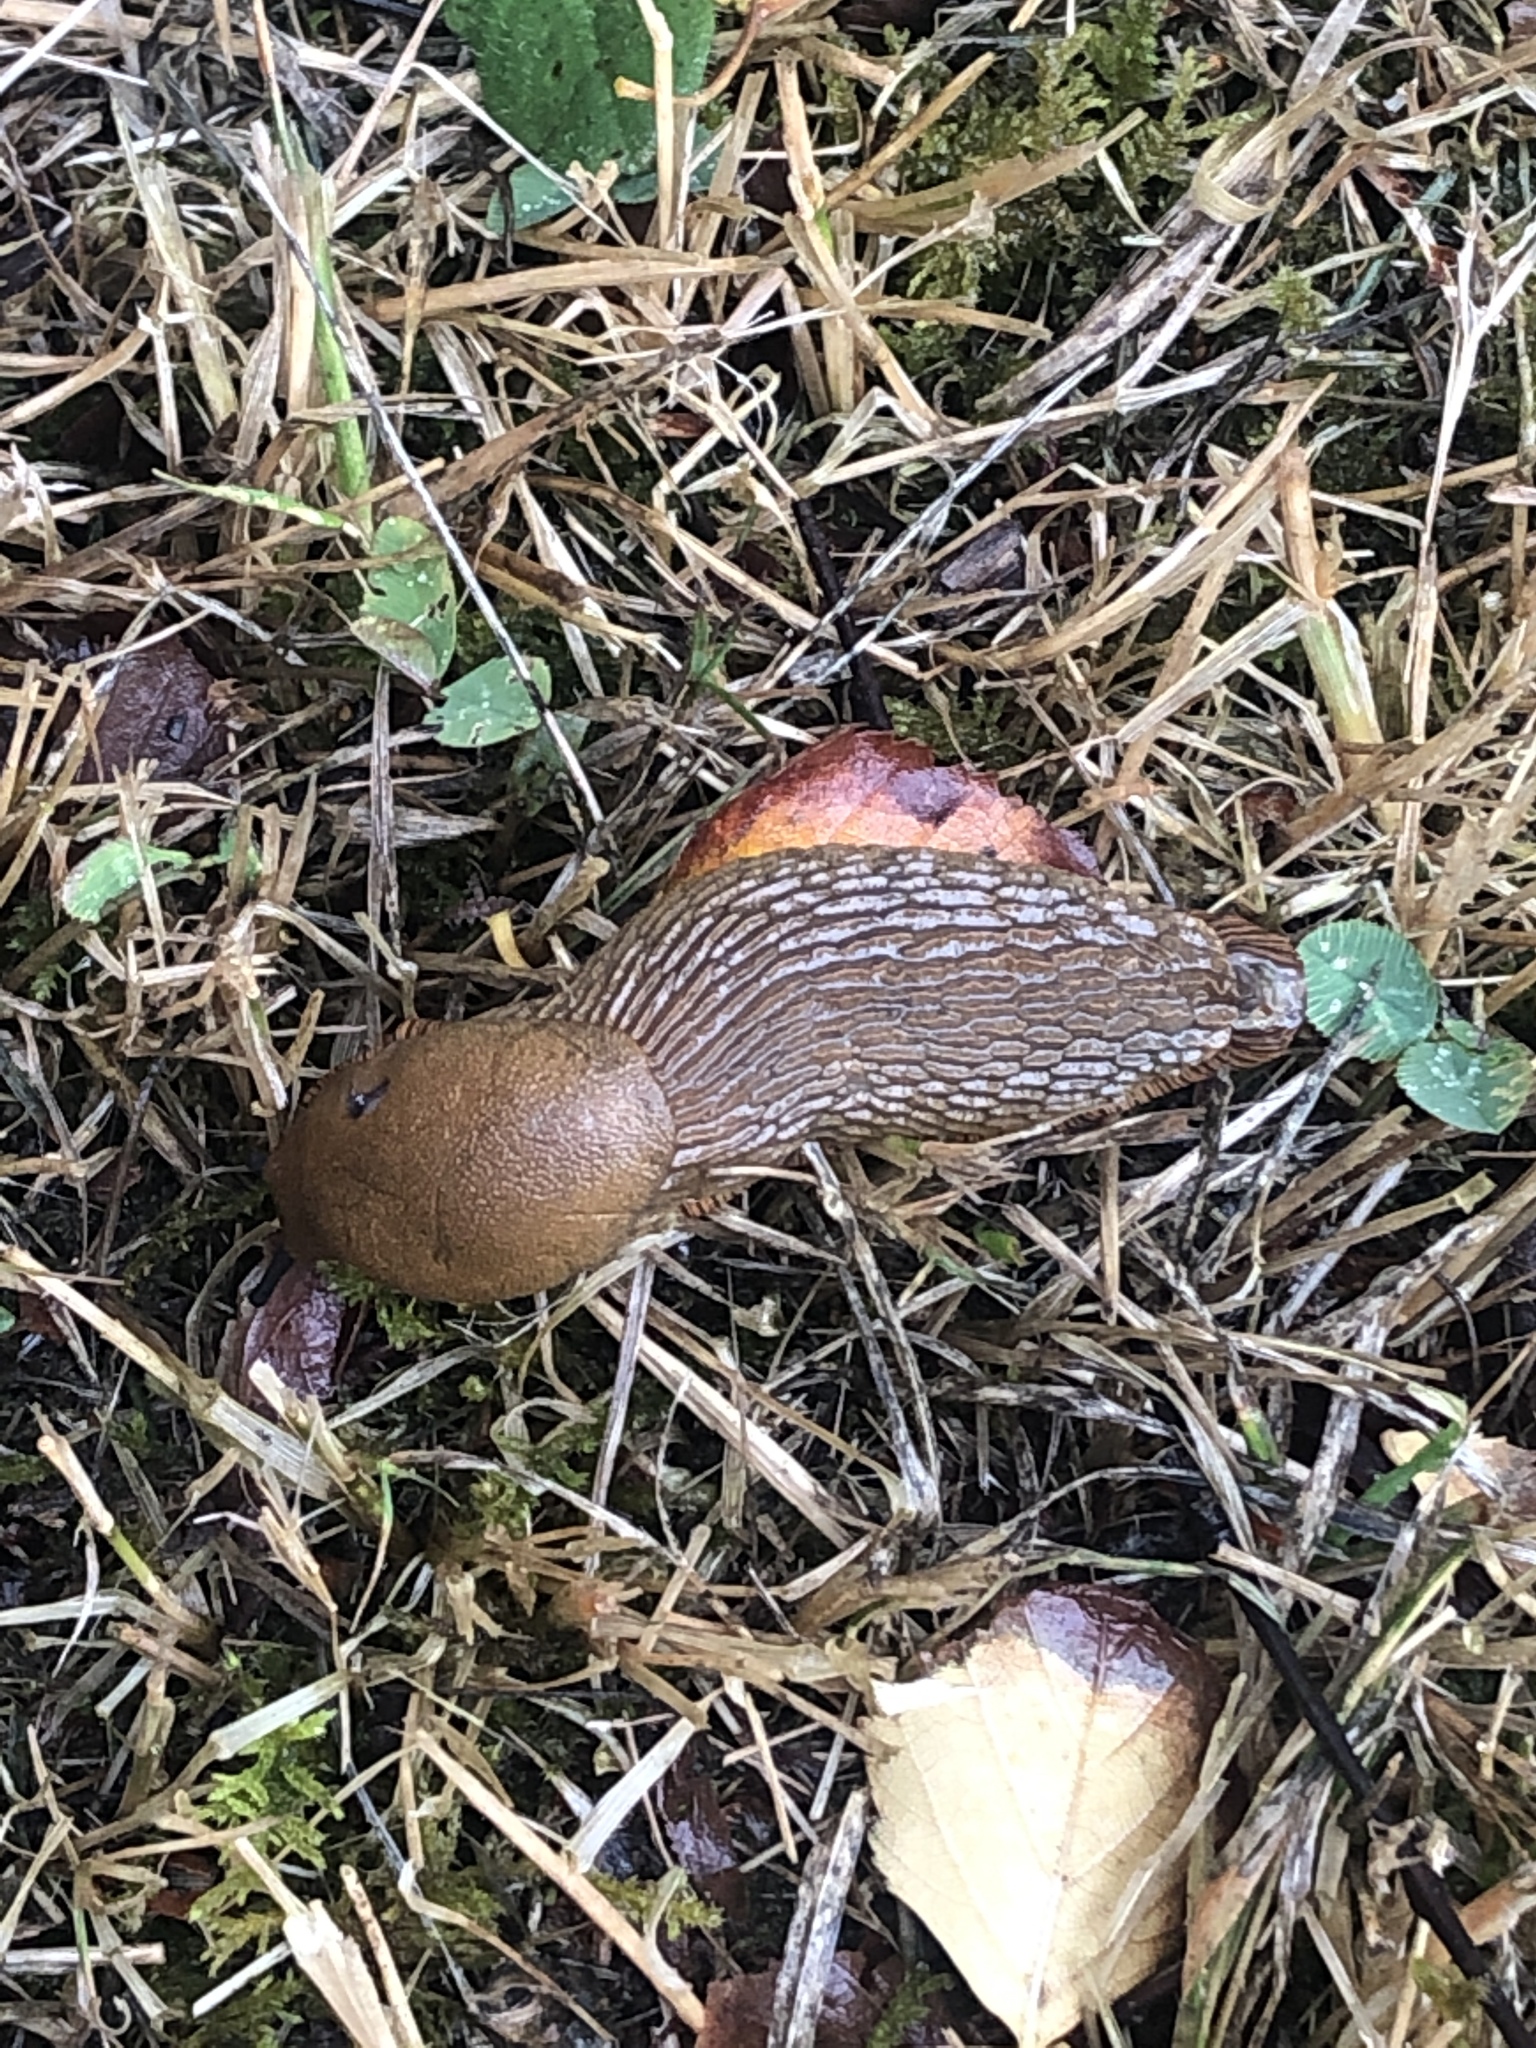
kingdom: Animalia
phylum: Mollusca
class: Gastropoda
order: Stylommatophora
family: Arionidae
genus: Arion
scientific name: Arion
